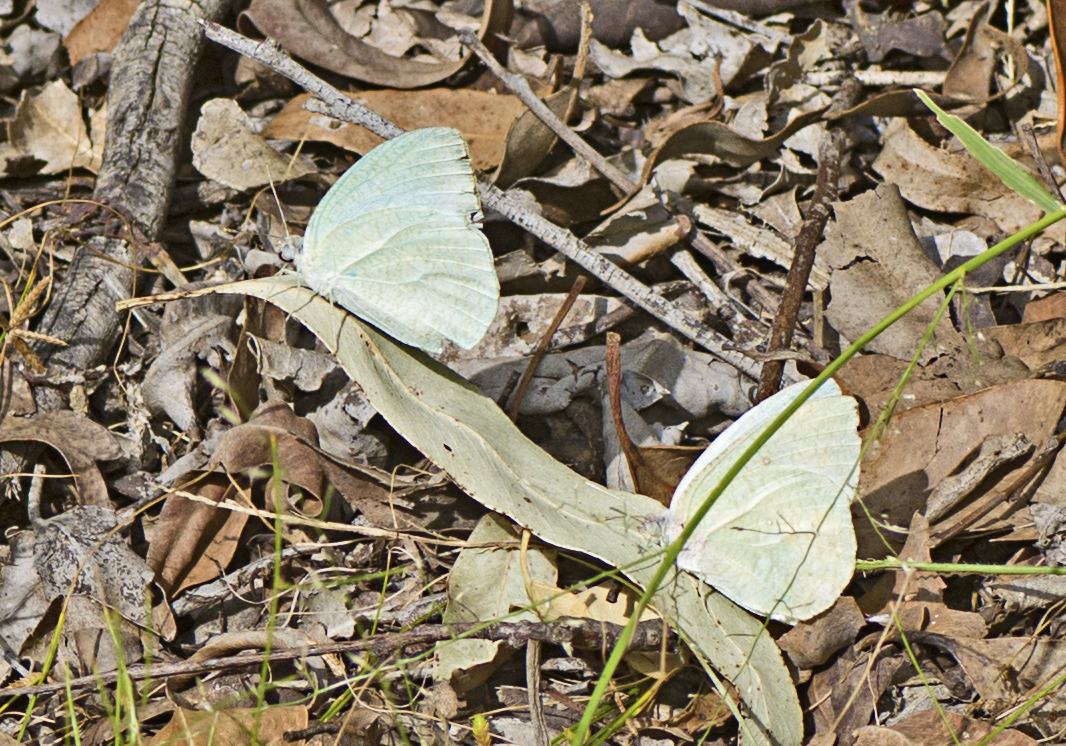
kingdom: Animalia
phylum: Arthropoda
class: Insecta
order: Lepidoptera
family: Pieridae
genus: Catopsilia
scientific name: Catopsilia pyranthe
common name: Mottled emigrant
